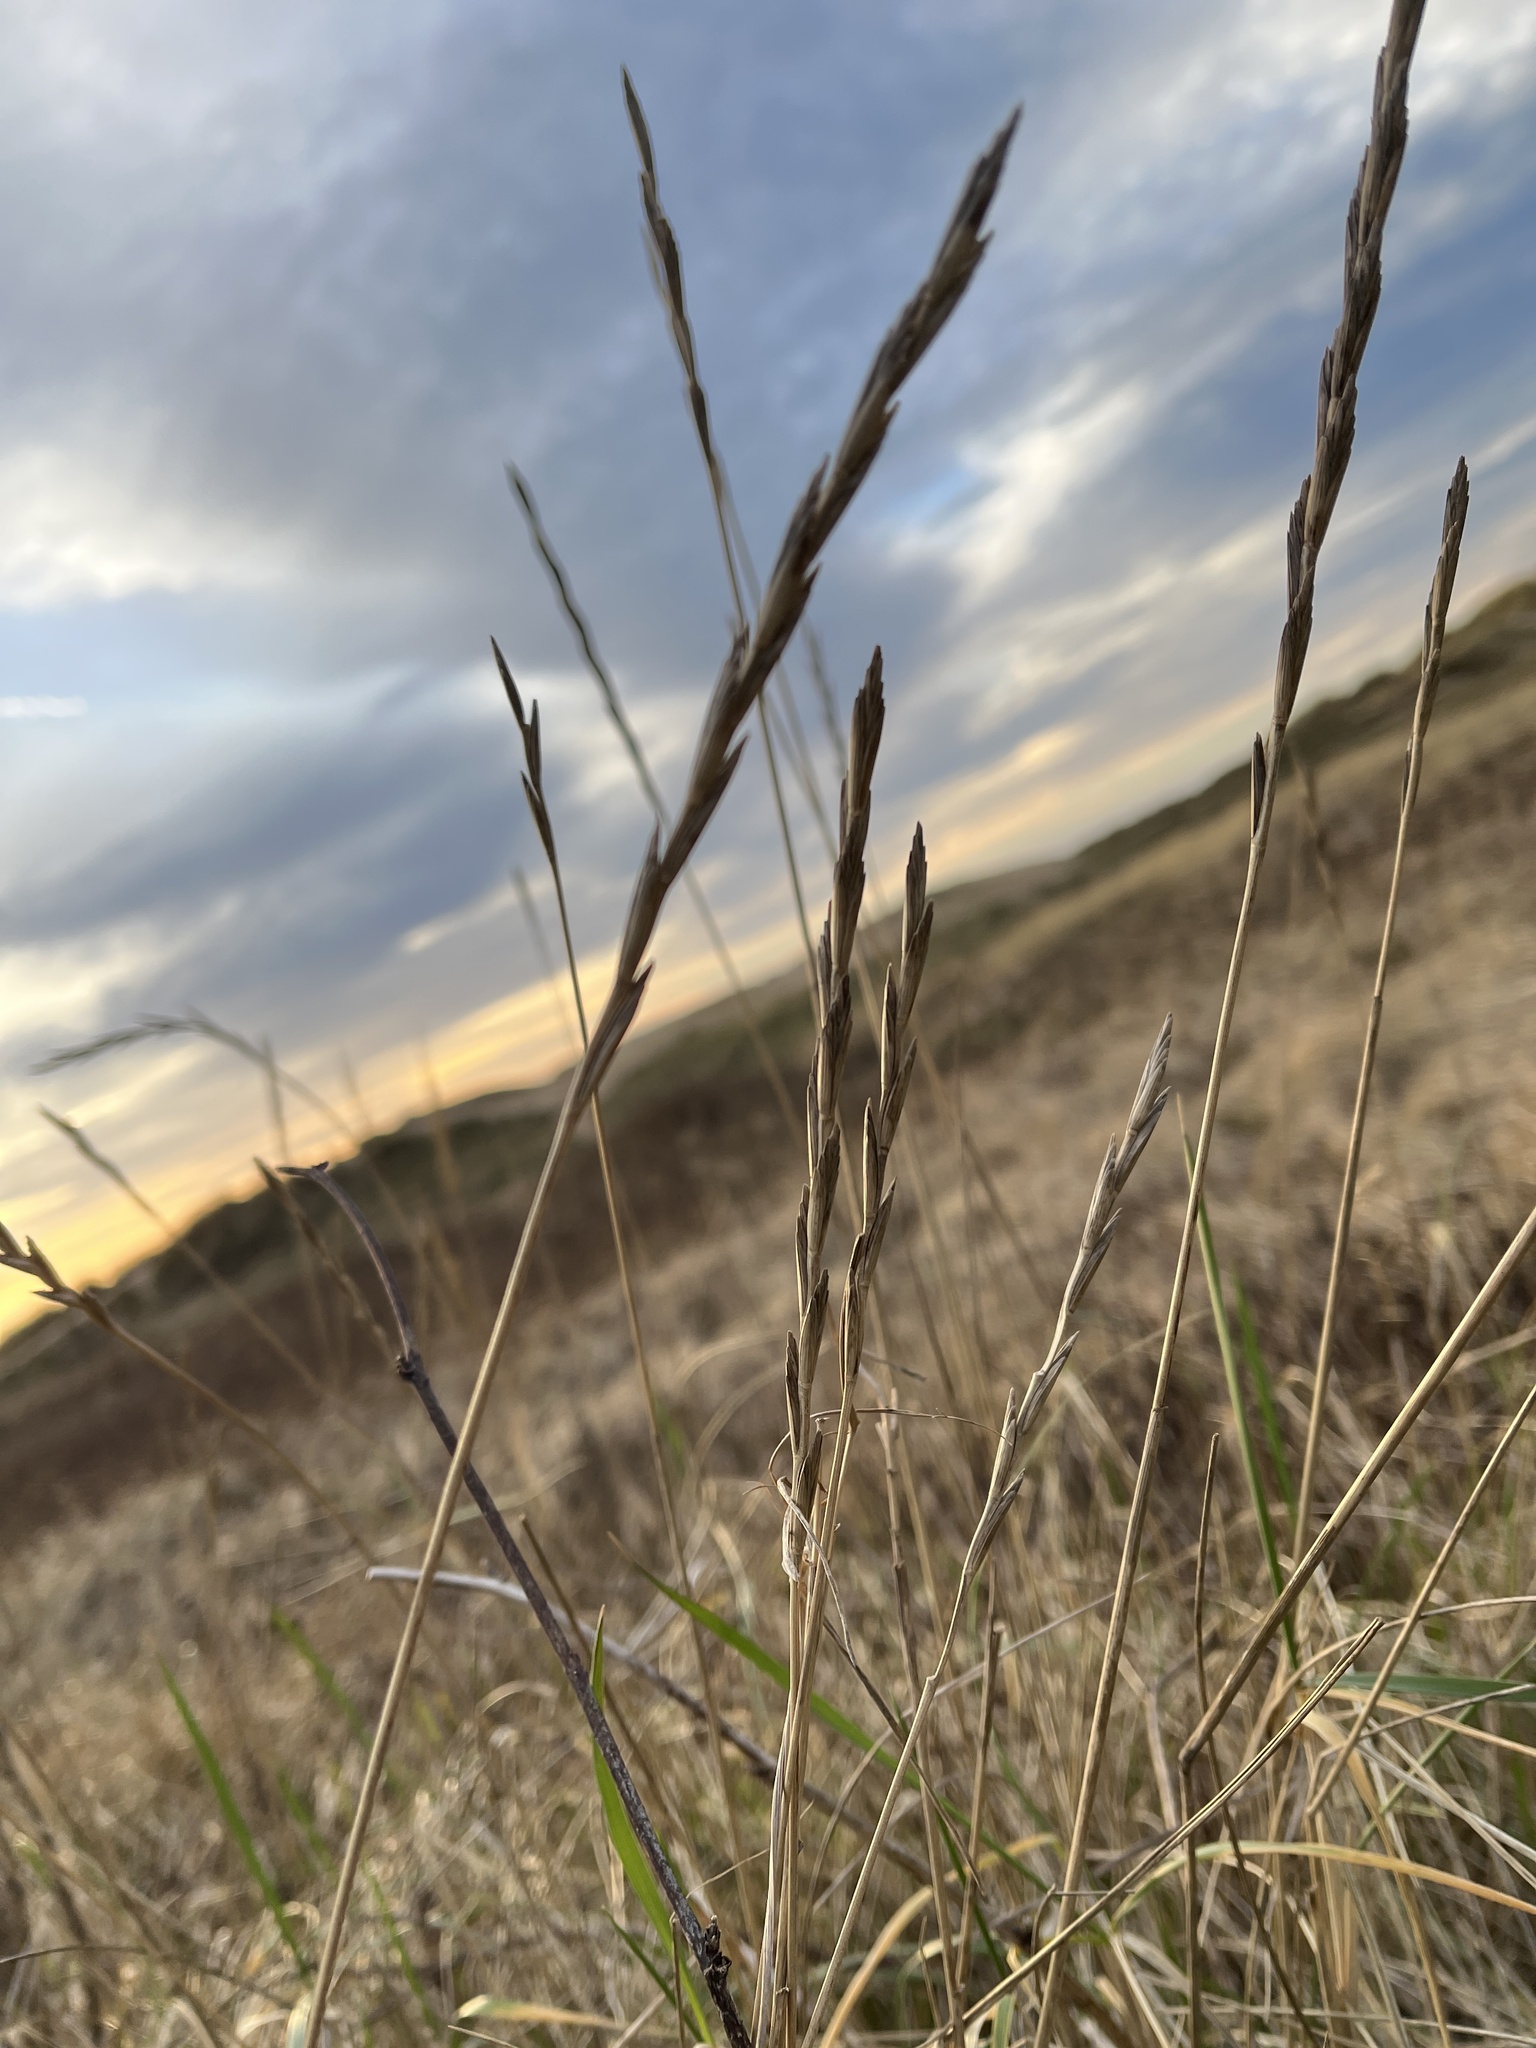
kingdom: Plantae
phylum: Tracheophyta
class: Liliopsida
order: Poales
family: Poaceae
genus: Thinopyrum
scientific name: Thinopyrum junceum
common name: Russian wheatgrass
